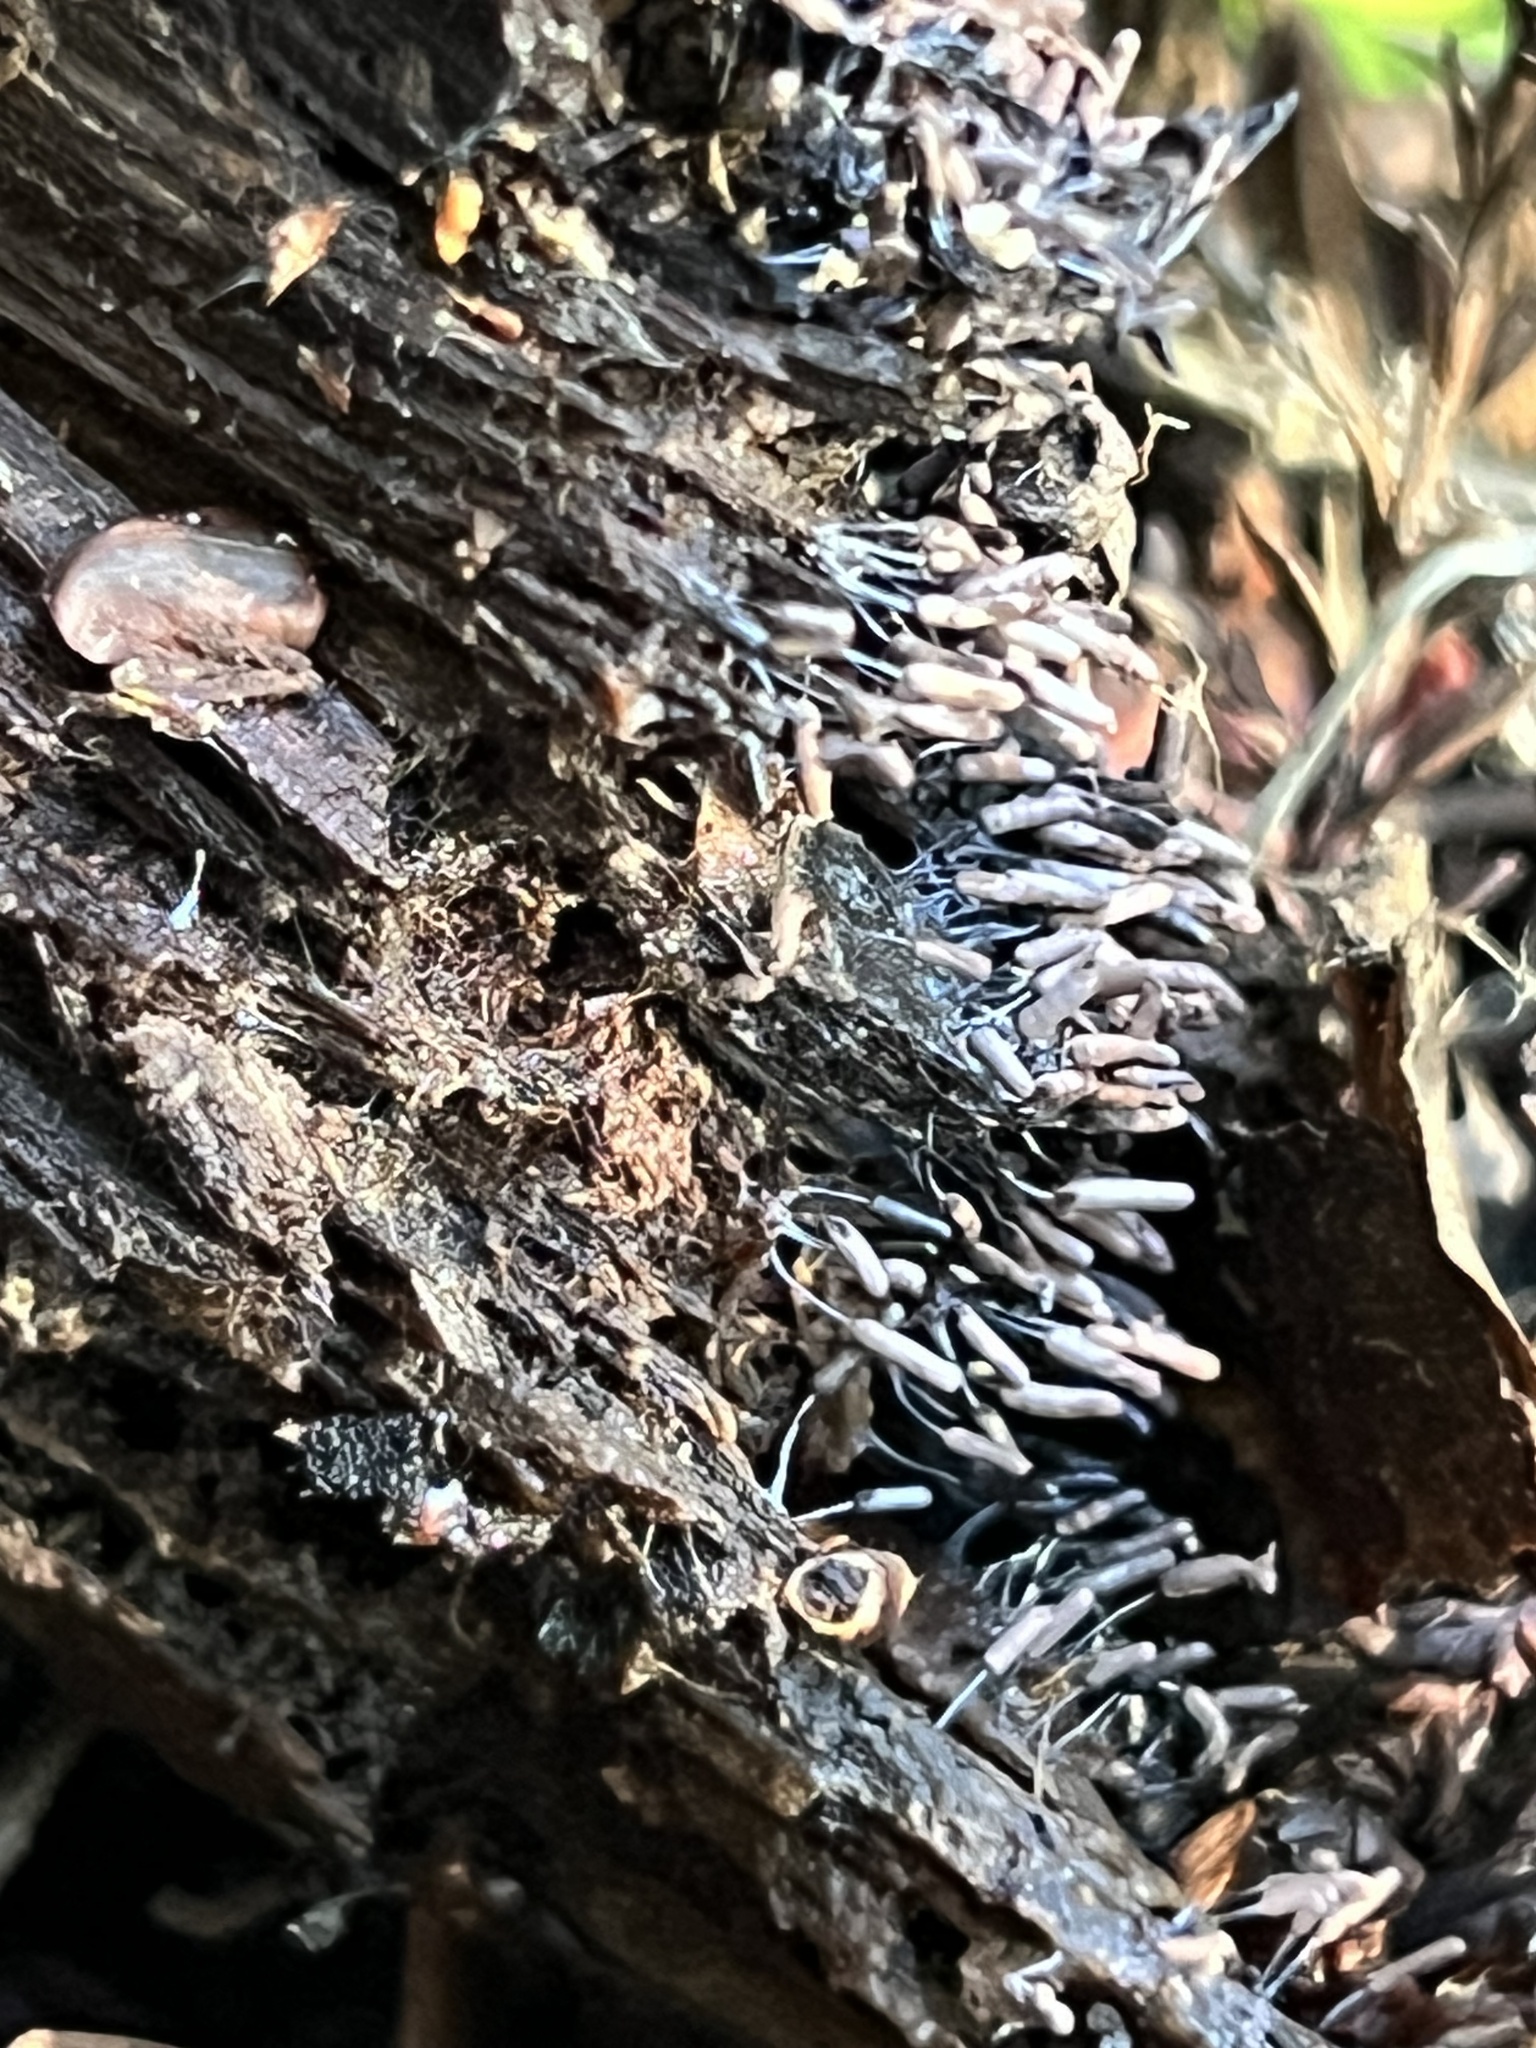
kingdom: Protozoa
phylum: Mycetozoa
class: Myxomycetes
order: Stemonitidales
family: Stemonitidaceae
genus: Stemonitopsis
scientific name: Stemonitopsis typhina
